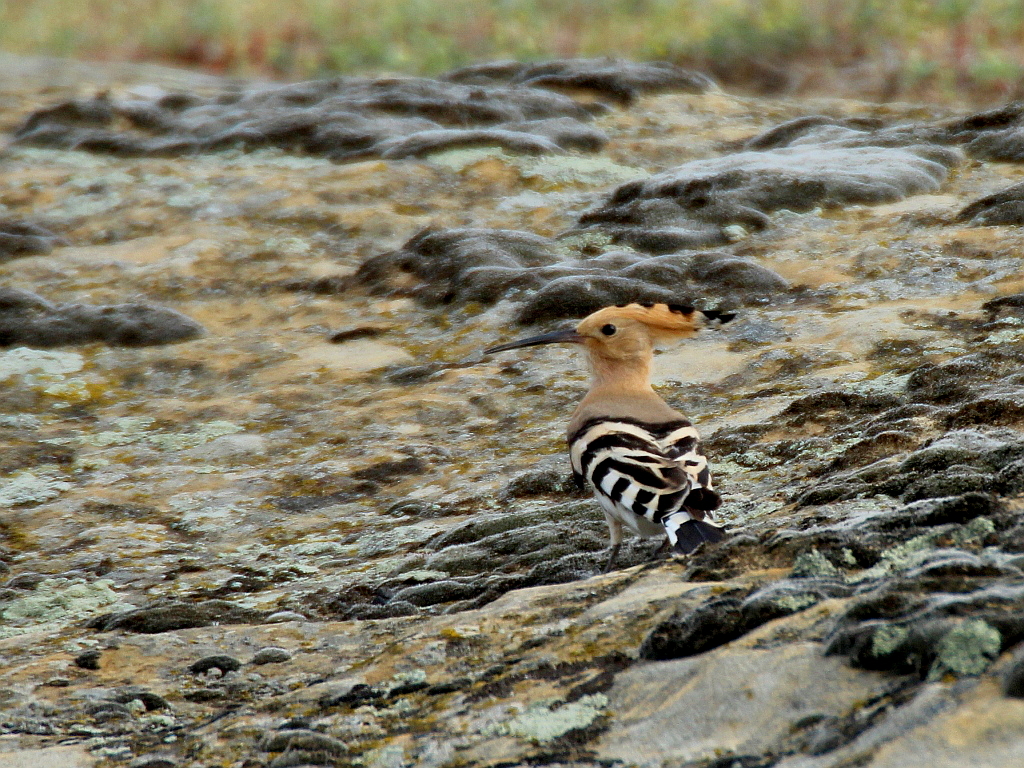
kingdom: Animalia
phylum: Chordata
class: Aves
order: Bucerotiformes
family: Upupidae
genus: Upupa
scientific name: Upupa epops
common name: Eurasian hoopoe
